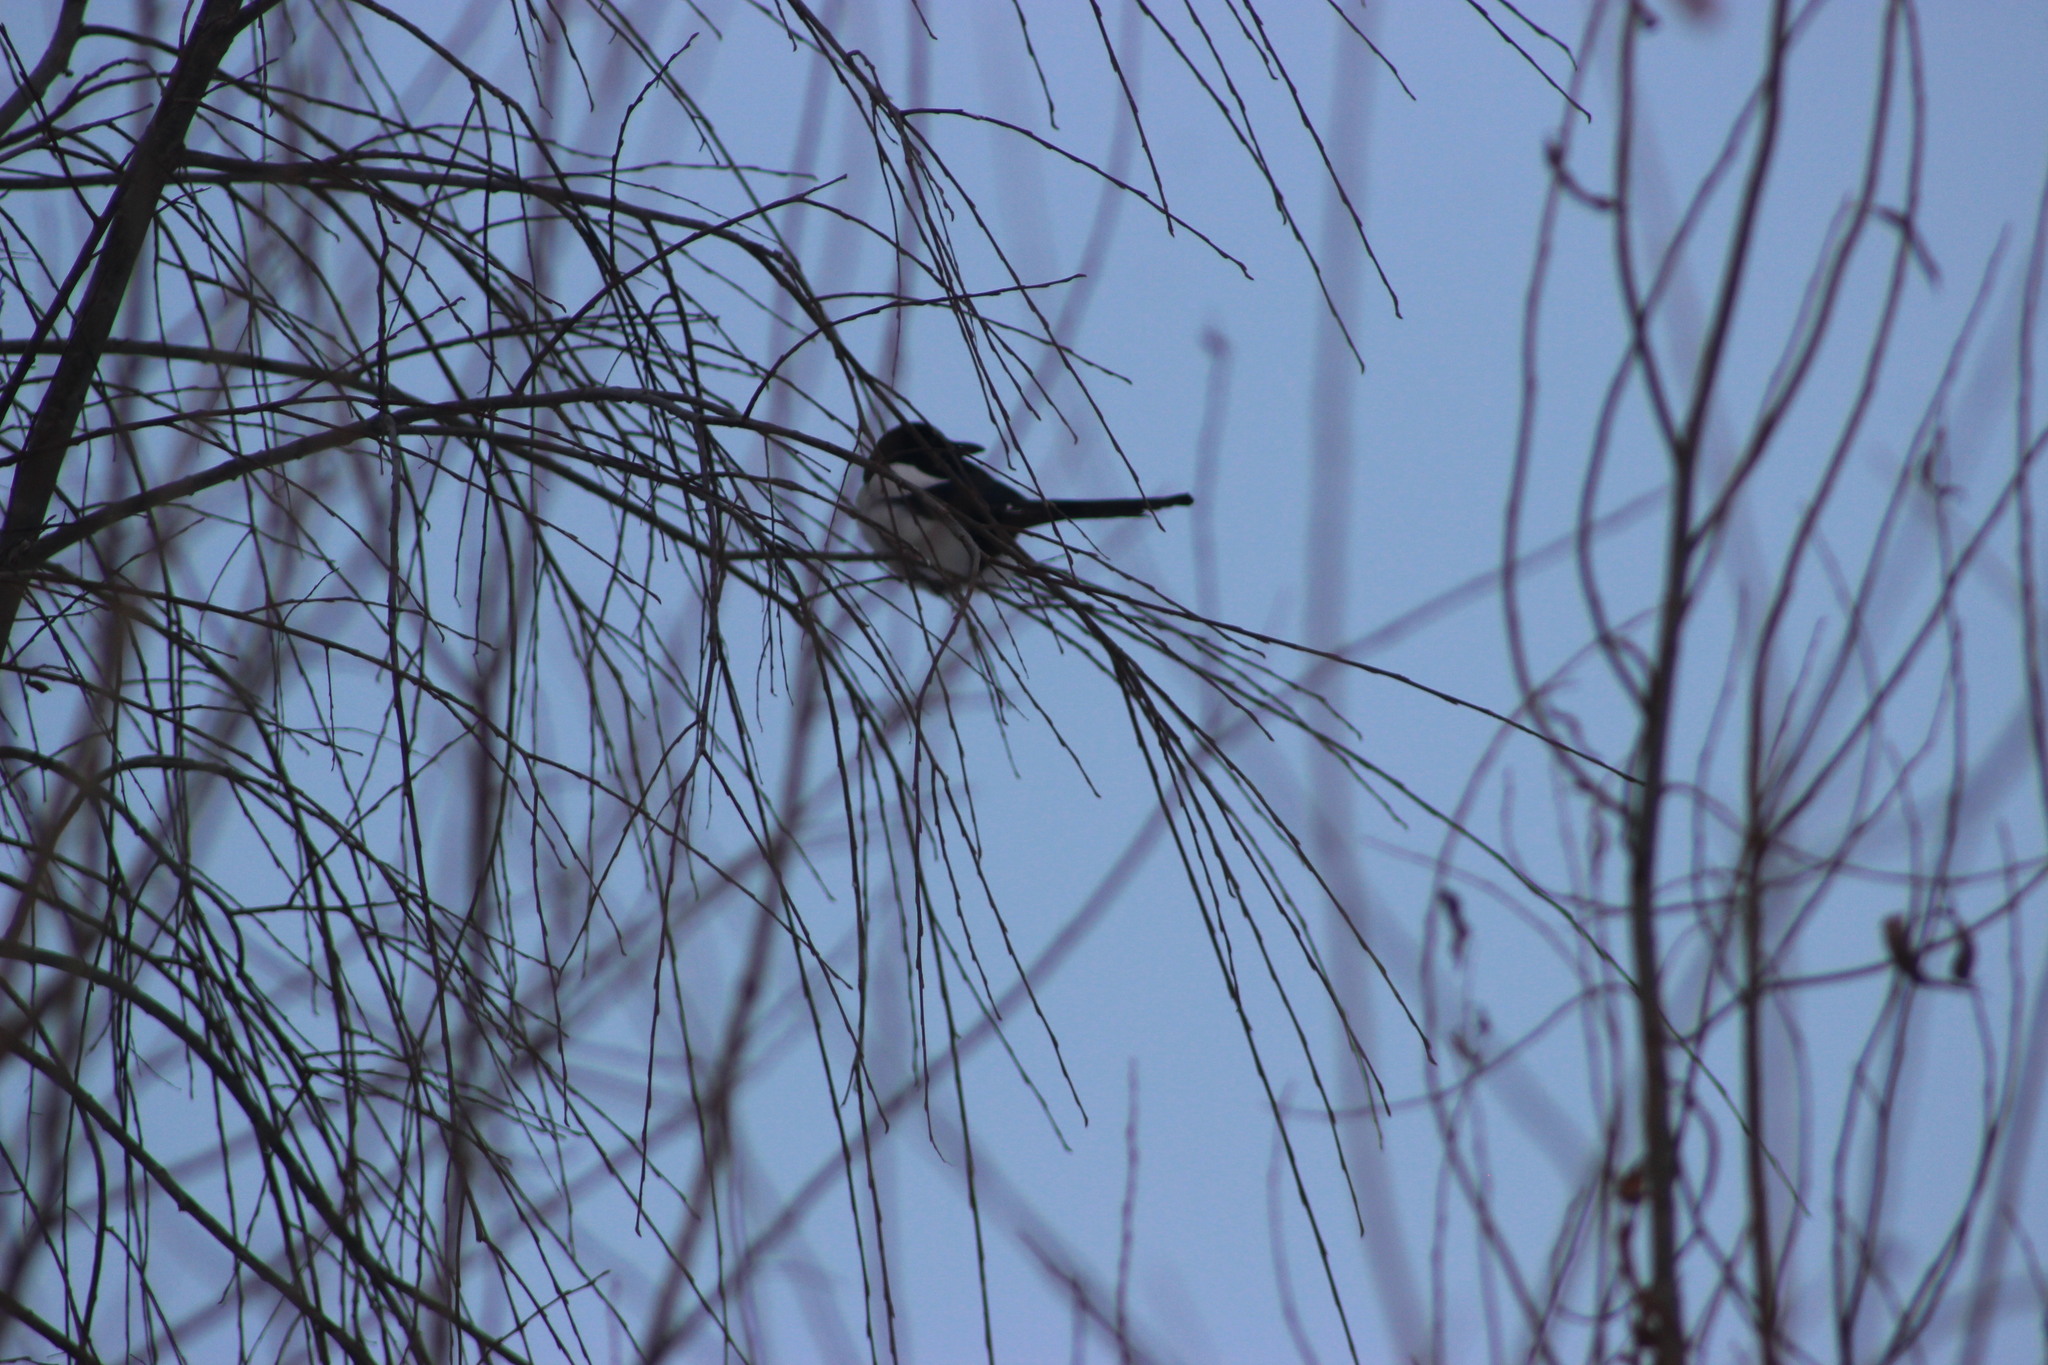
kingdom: Animalia
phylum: Chordata
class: Aves
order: Passeriformes
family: Corvidae
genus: Pica
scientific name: Pica pica
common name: Eurasian magpie
